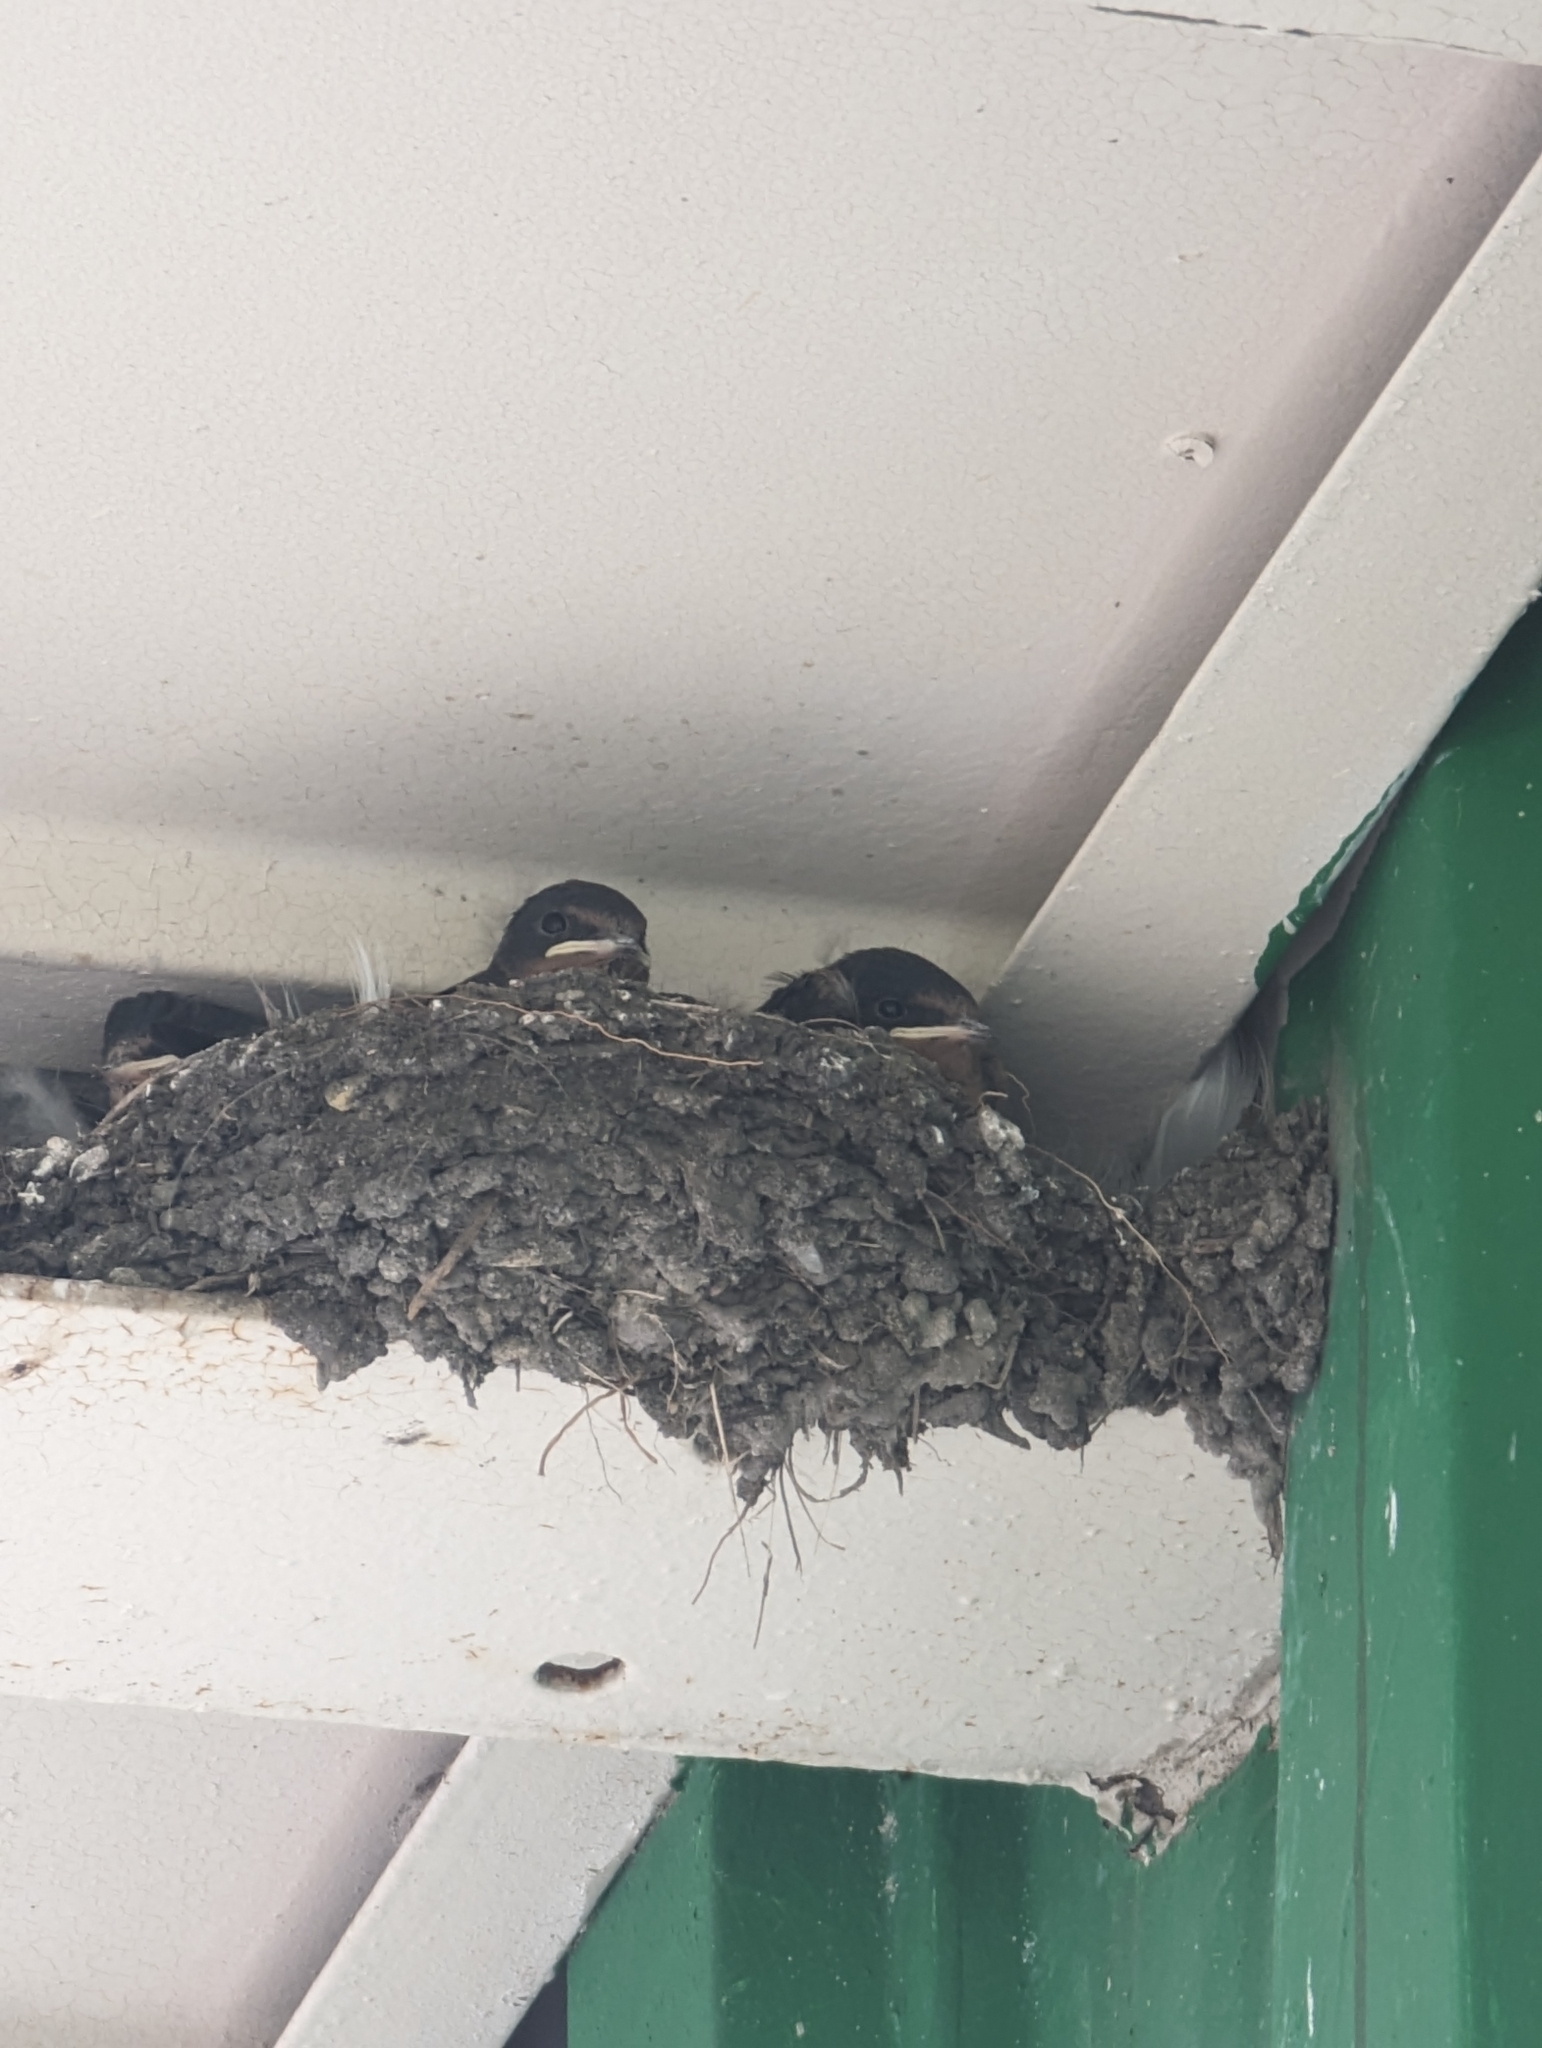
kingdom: Animalia
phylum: Chordata
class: Aves
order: Passeriformes
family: Hirundinidae
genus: Hirundo
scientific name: Hirundo rustica
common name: Barn swallow
